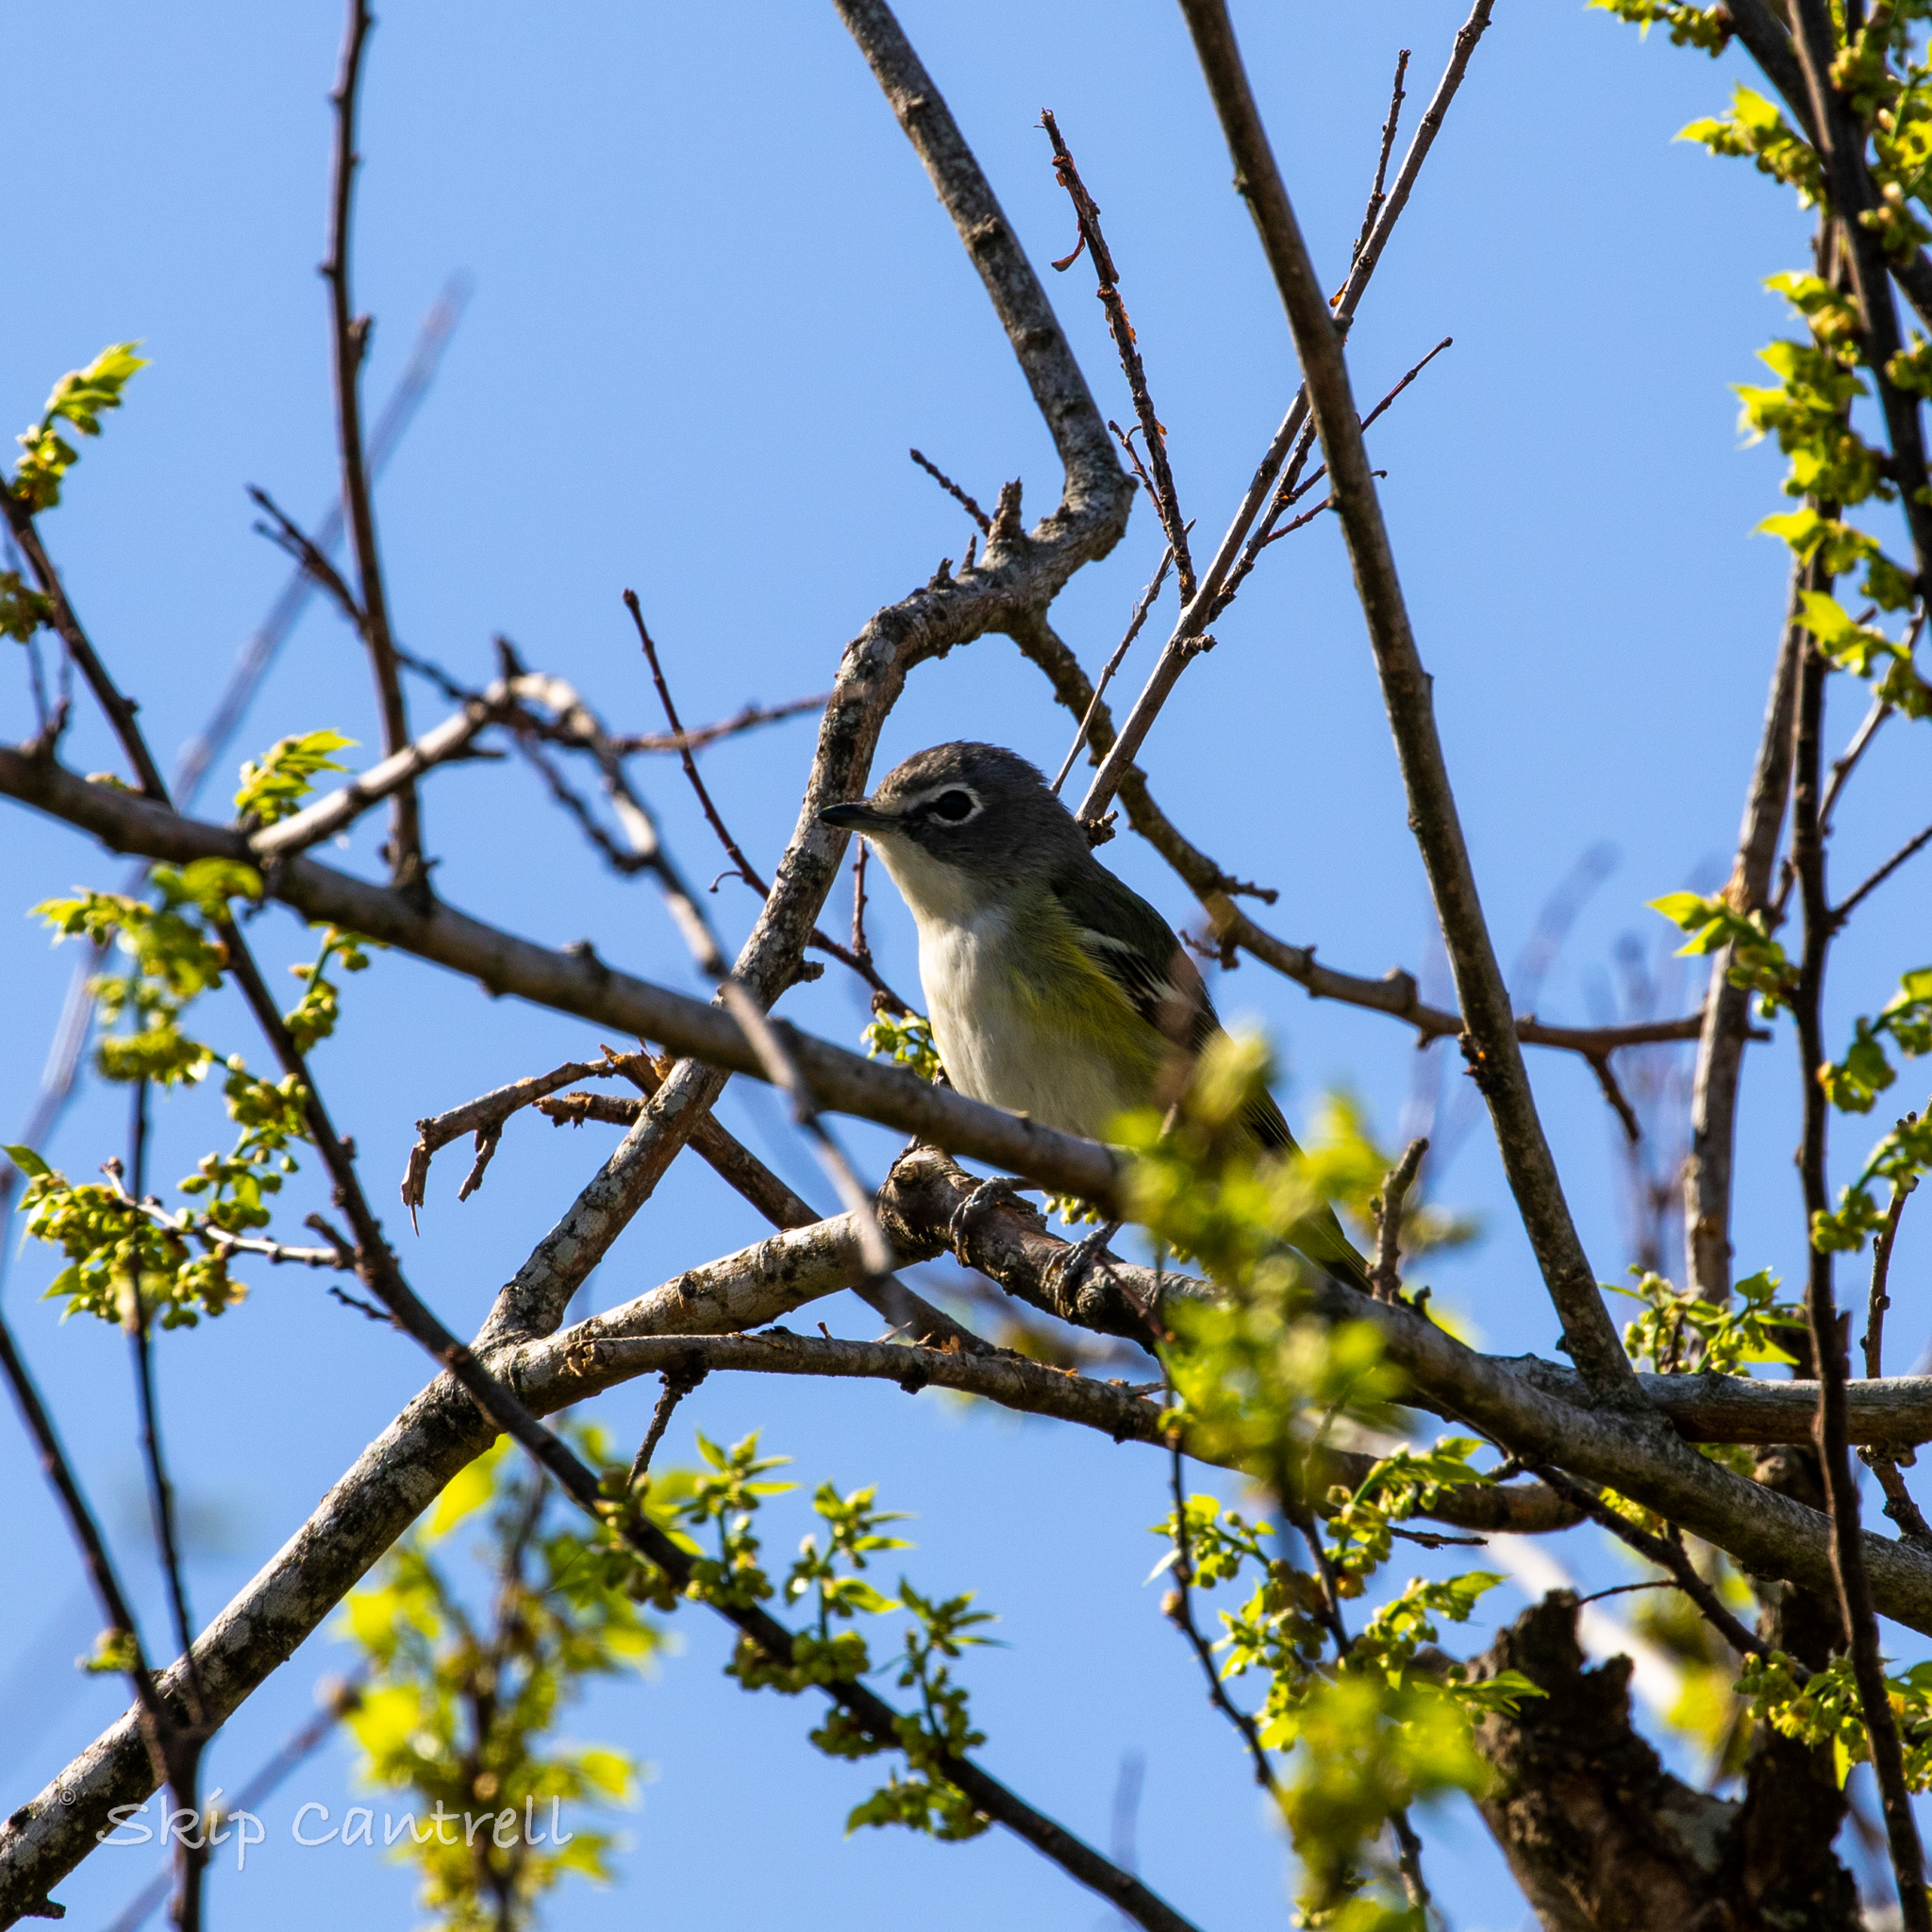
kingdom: Animalia
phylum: Chordata
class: Aves
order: Passeriformes
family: Vireonidae
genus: Vireo
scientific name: Vireo solitarius
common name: Blue-headed vireo
